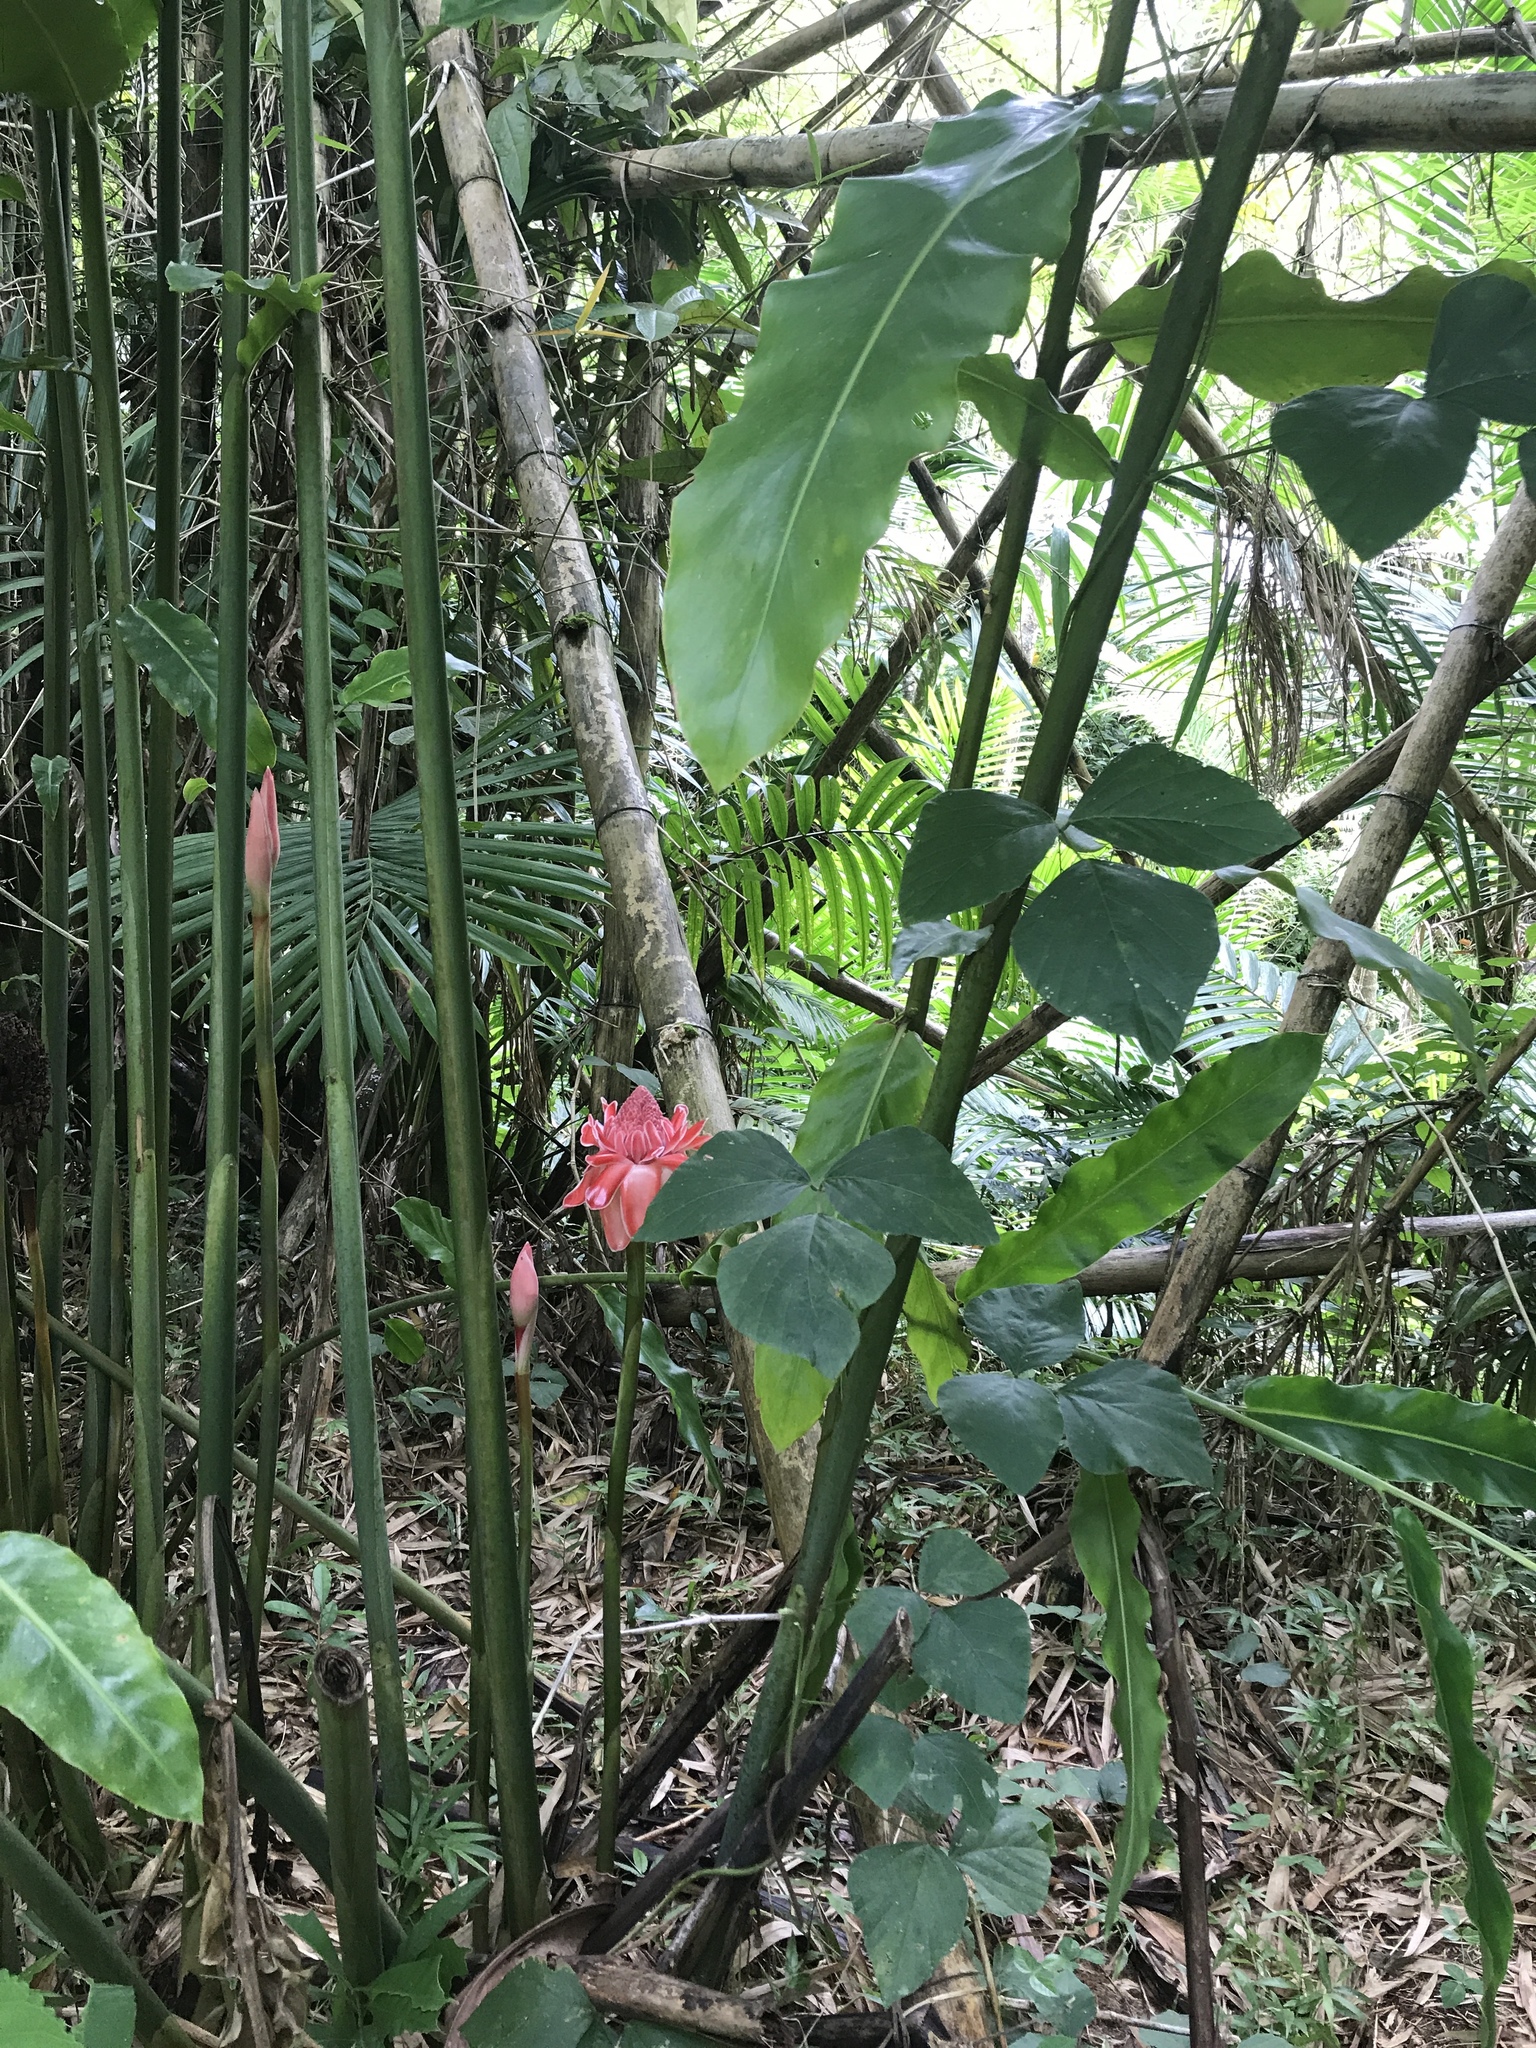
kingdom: Plantae
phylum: Tracheophyta
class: Liliopsida
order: Zingiberales
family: Zingiberaceae
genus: Etlingera
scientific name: Etlingera elatior
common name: Philippine waxflower
